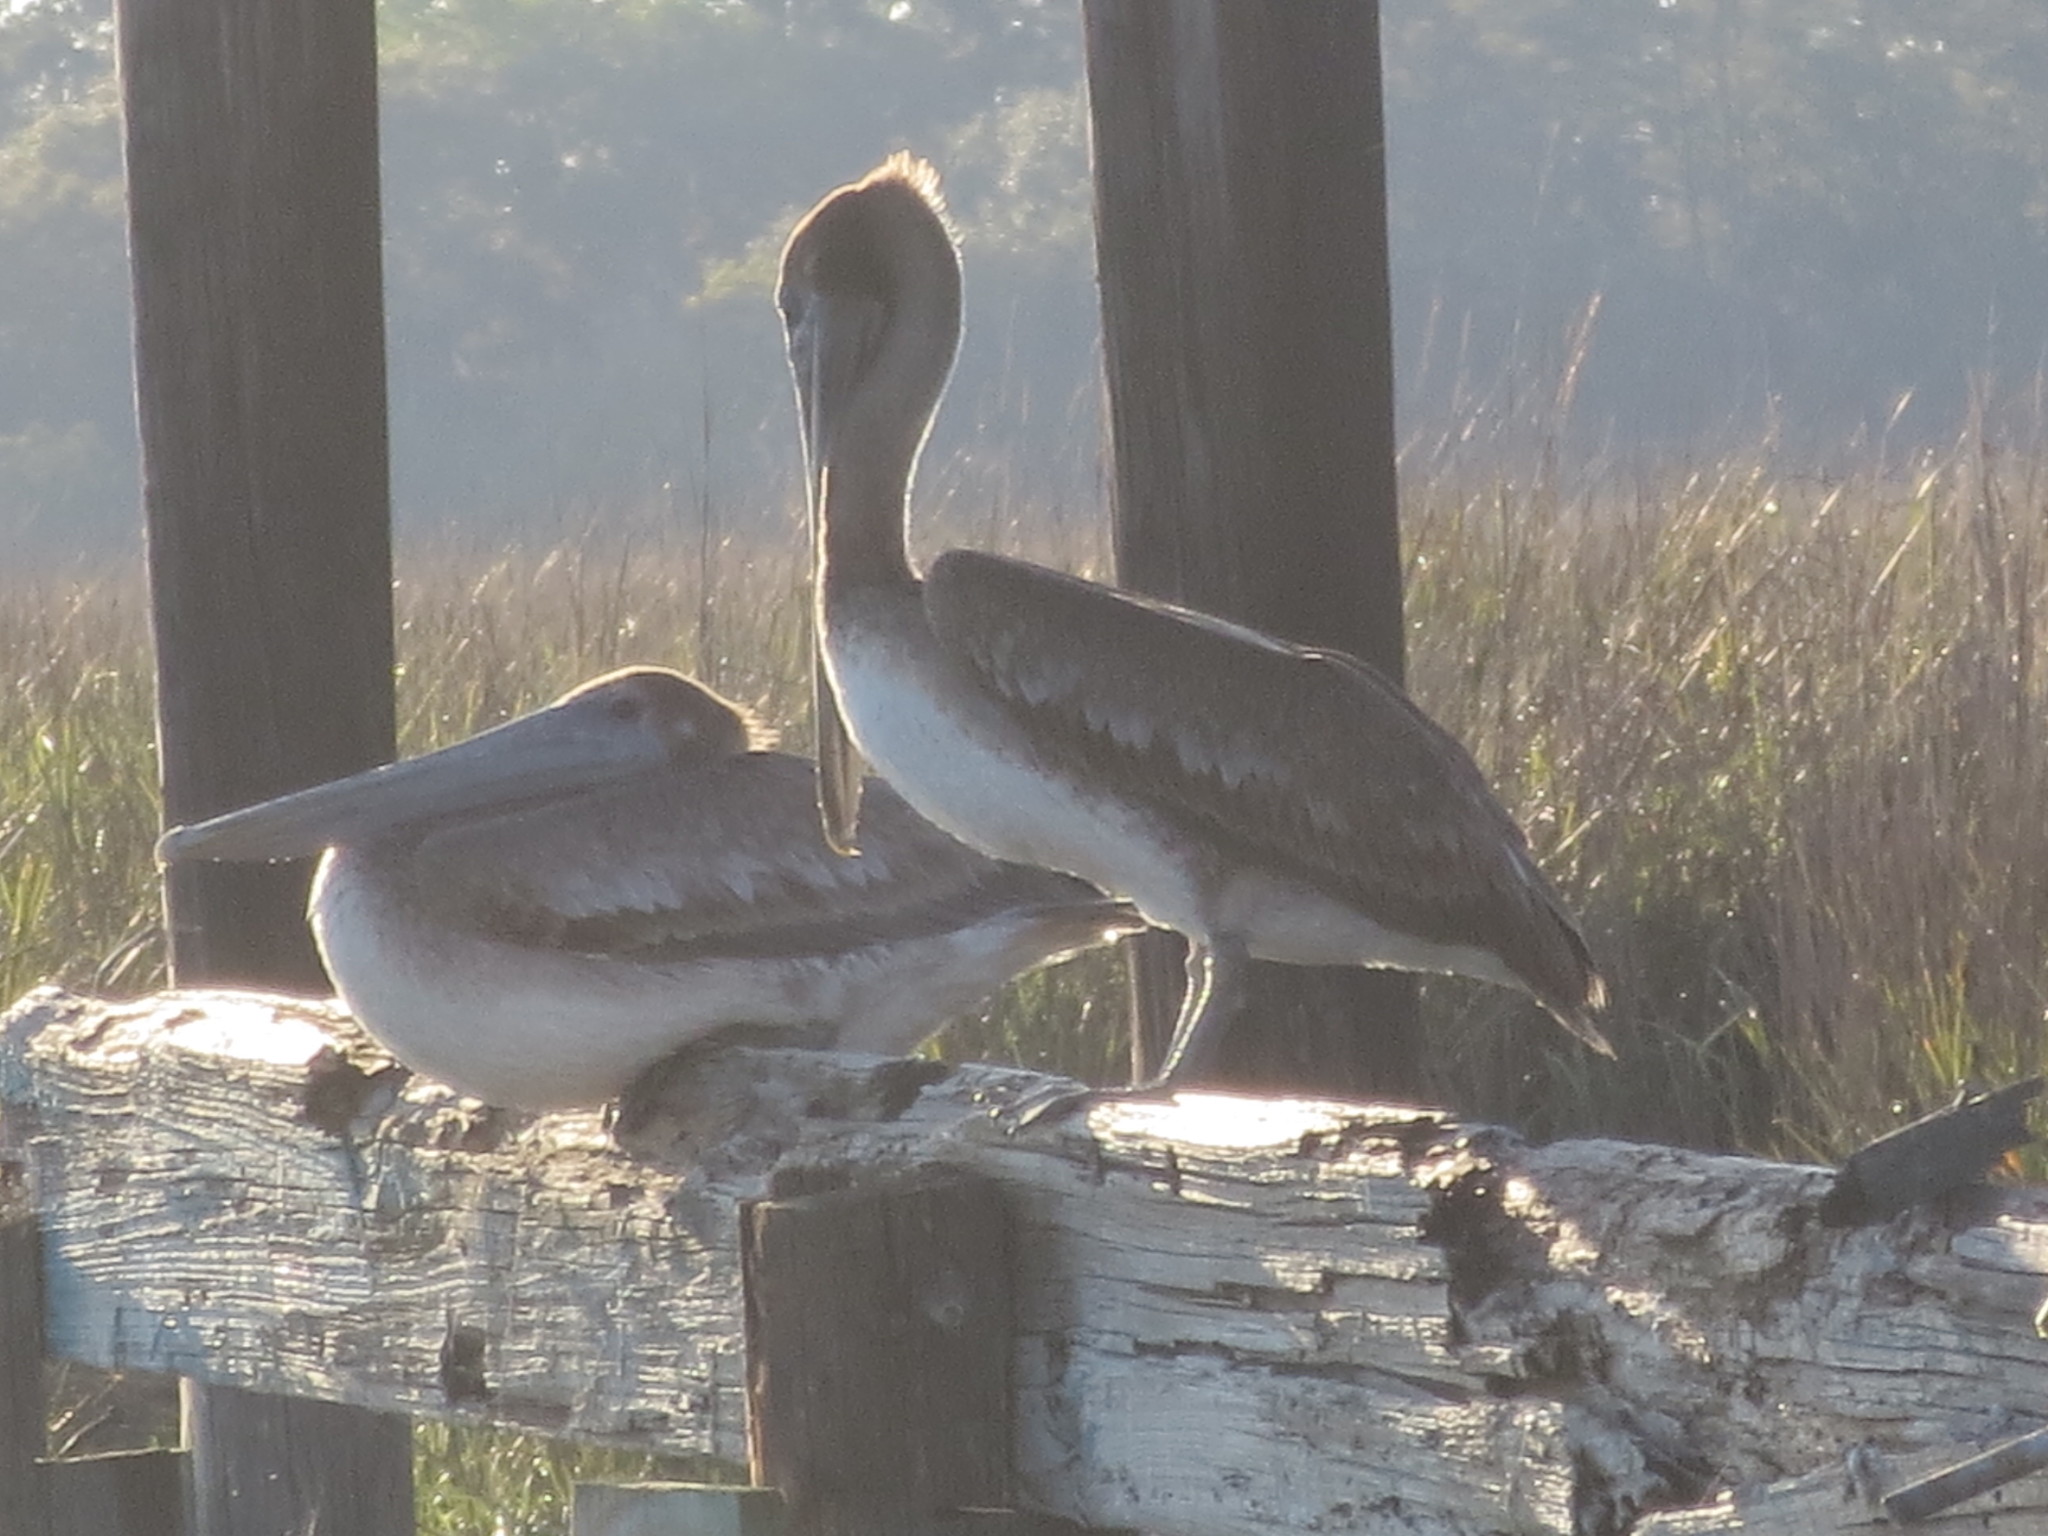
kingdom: Animalia
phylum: Chordata
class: Aves
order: Pelecaniformes
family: Pelecanidae
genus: Pelecanus
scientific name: Pelecanus occidentalis
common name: Brown pelican
